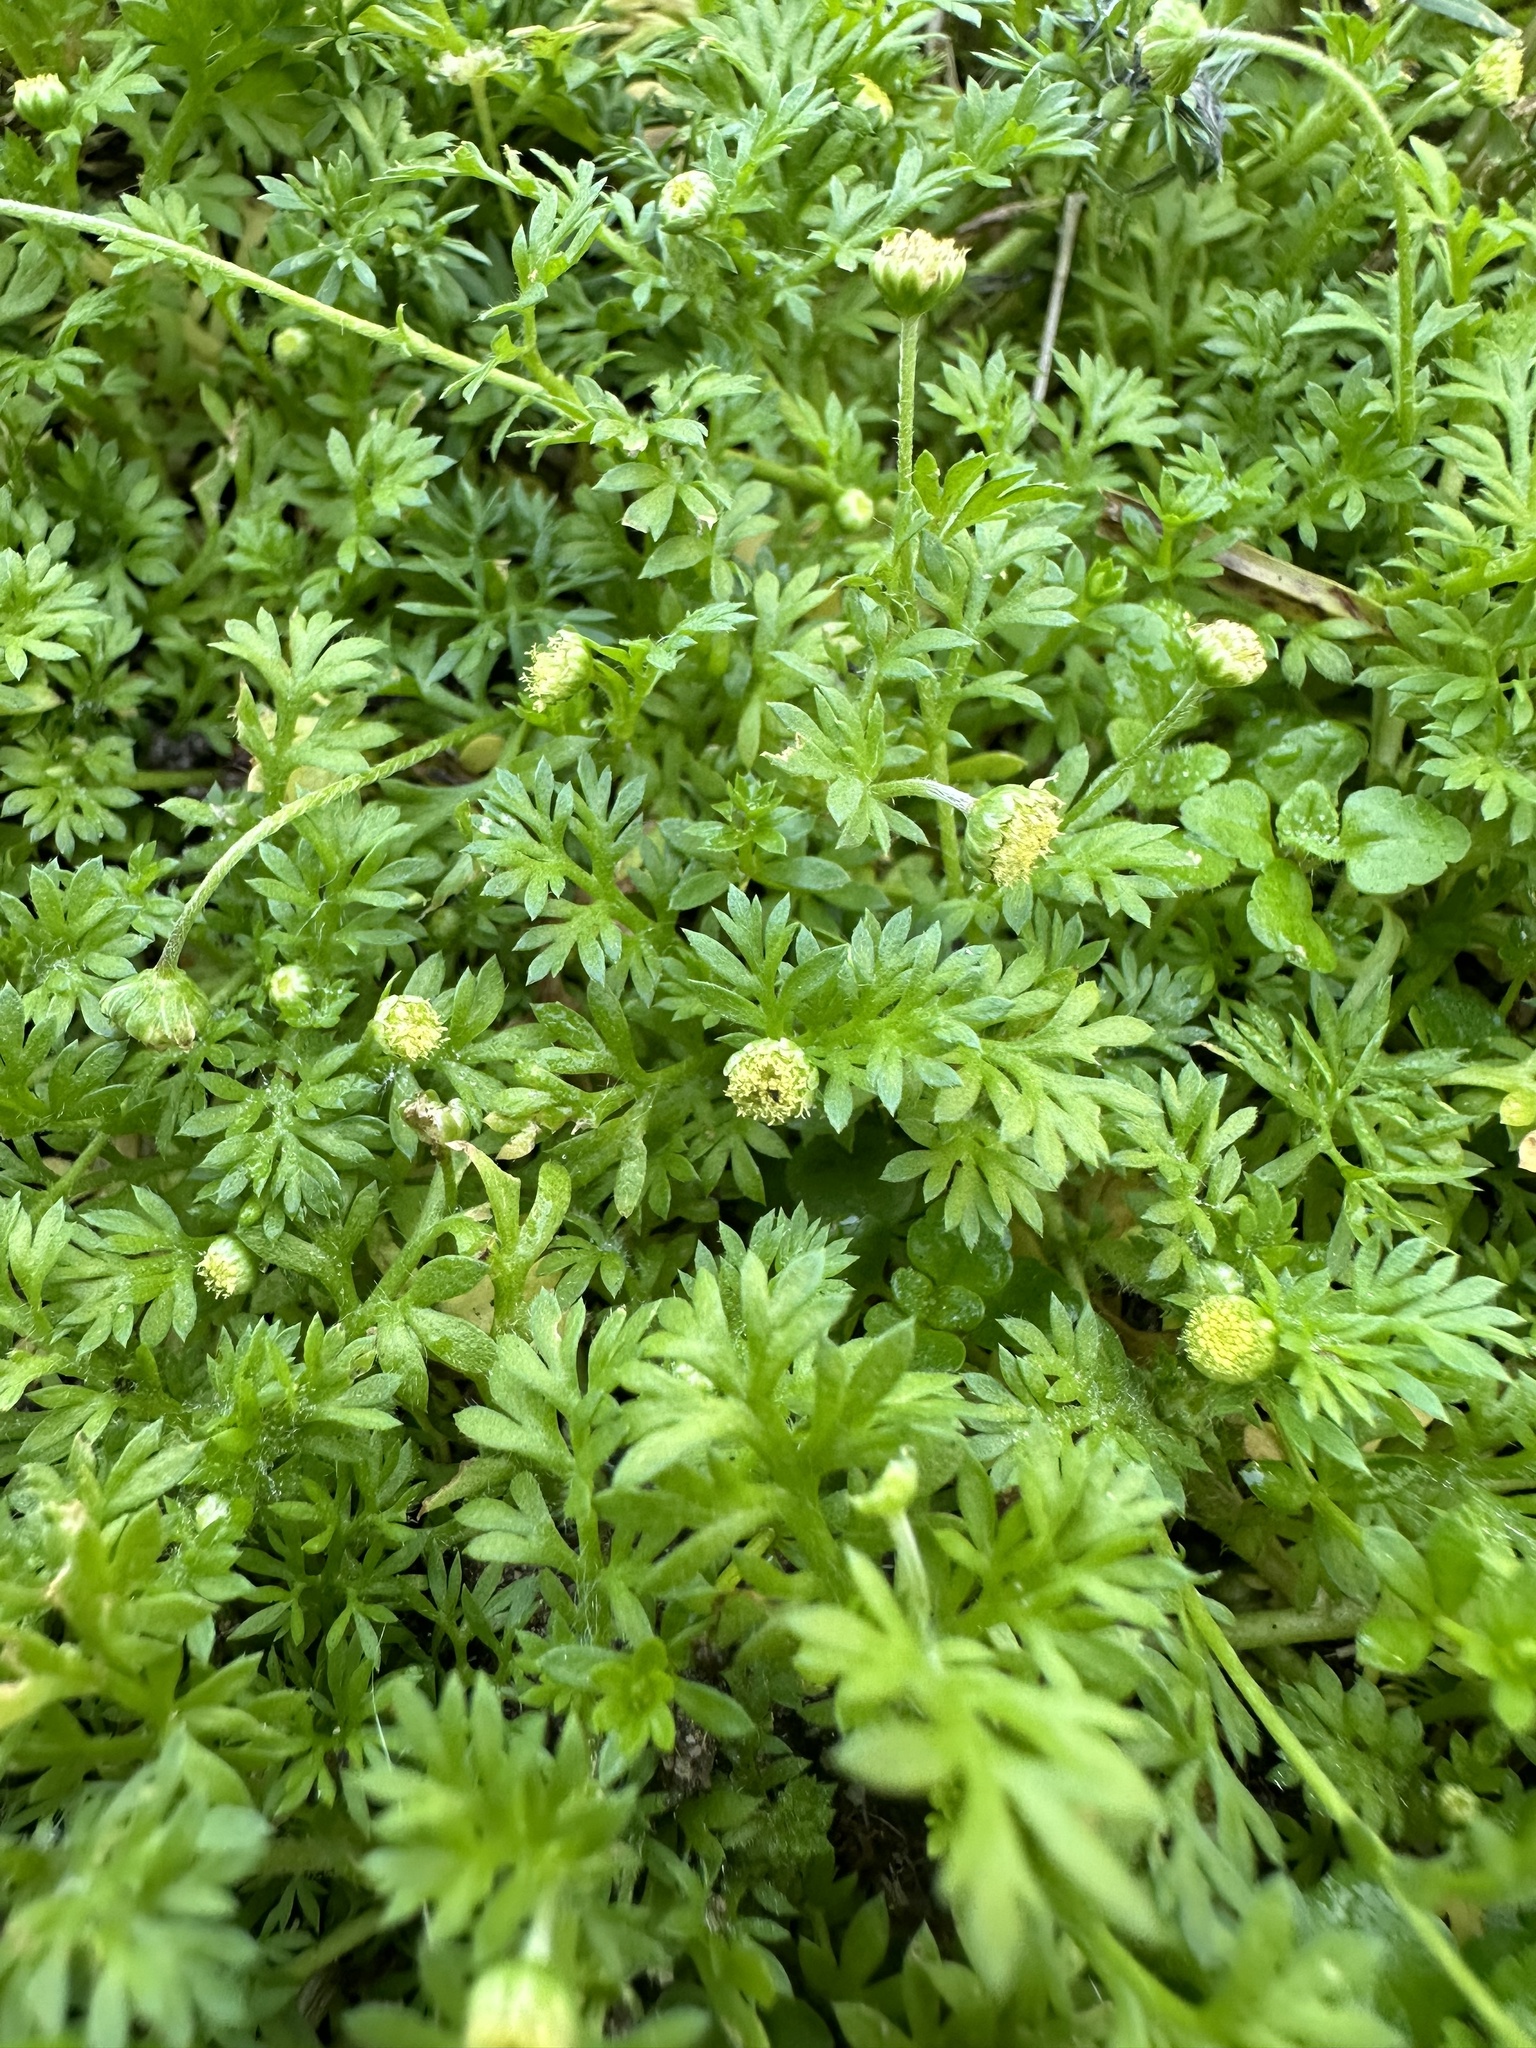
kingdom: Plantae
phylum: Tracheophyta
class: Magnoliopsida
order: Asterales
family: Asteraceae
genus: Cotula
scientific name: Cotula australis
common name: Australian waterbuttons
